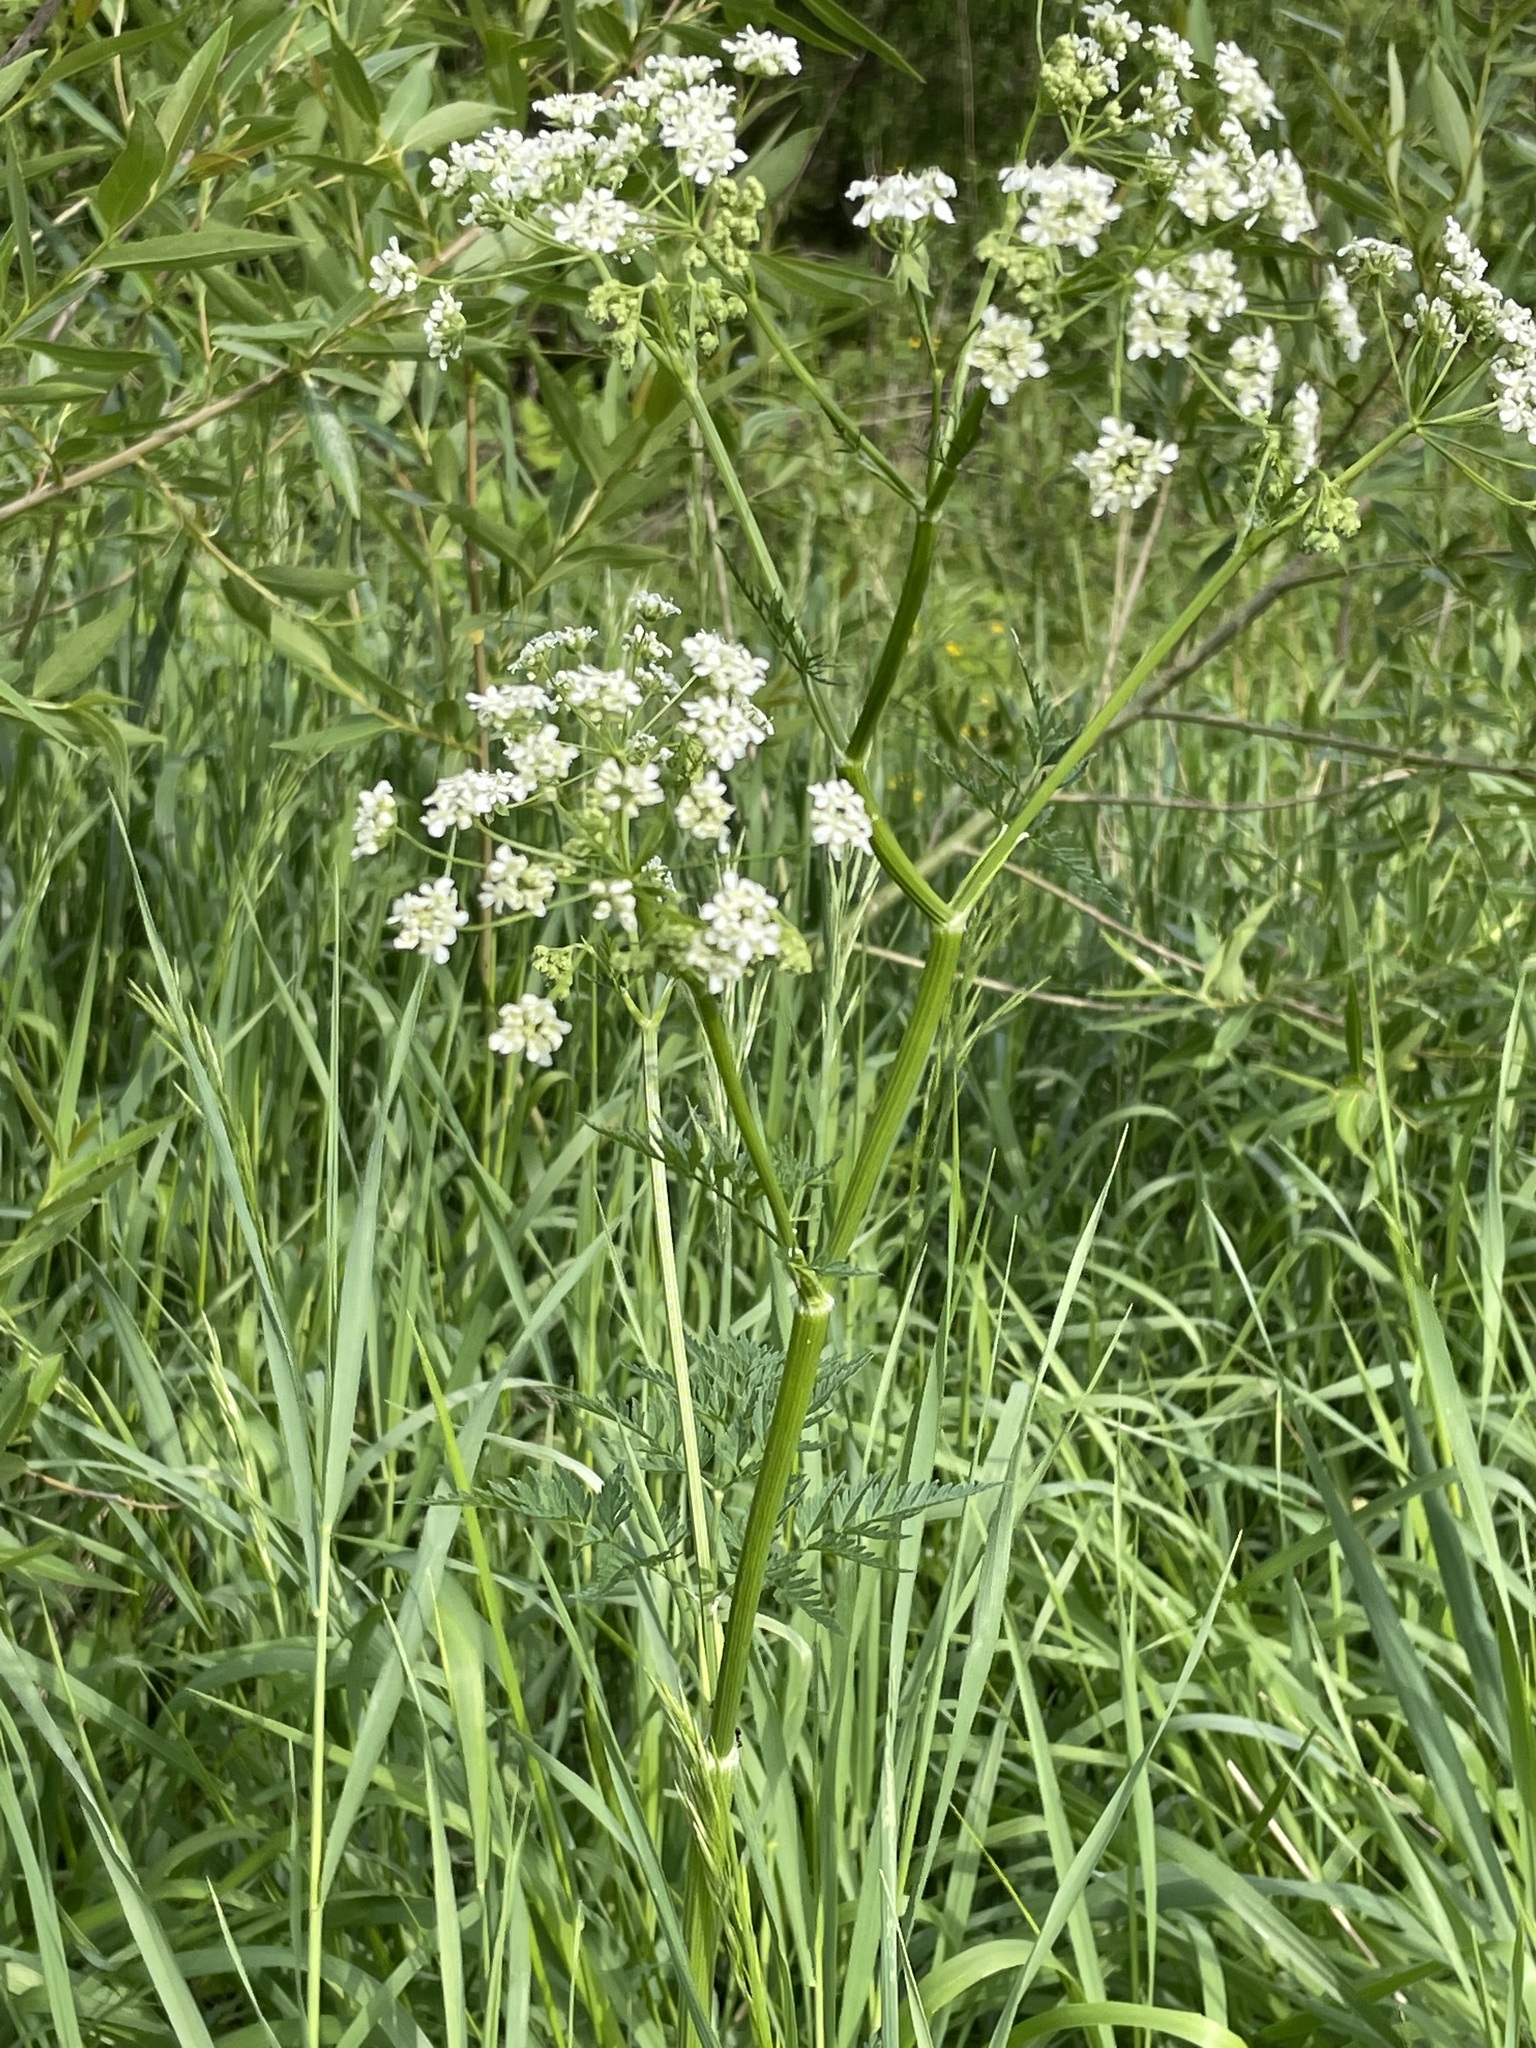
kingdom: Plantae
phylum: Tracheophyta
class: Magnoliopsida
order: Apiales
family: Apiaceae
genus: Anthriscus
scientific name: Anthriscus sylvestris
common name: Cow parsley
